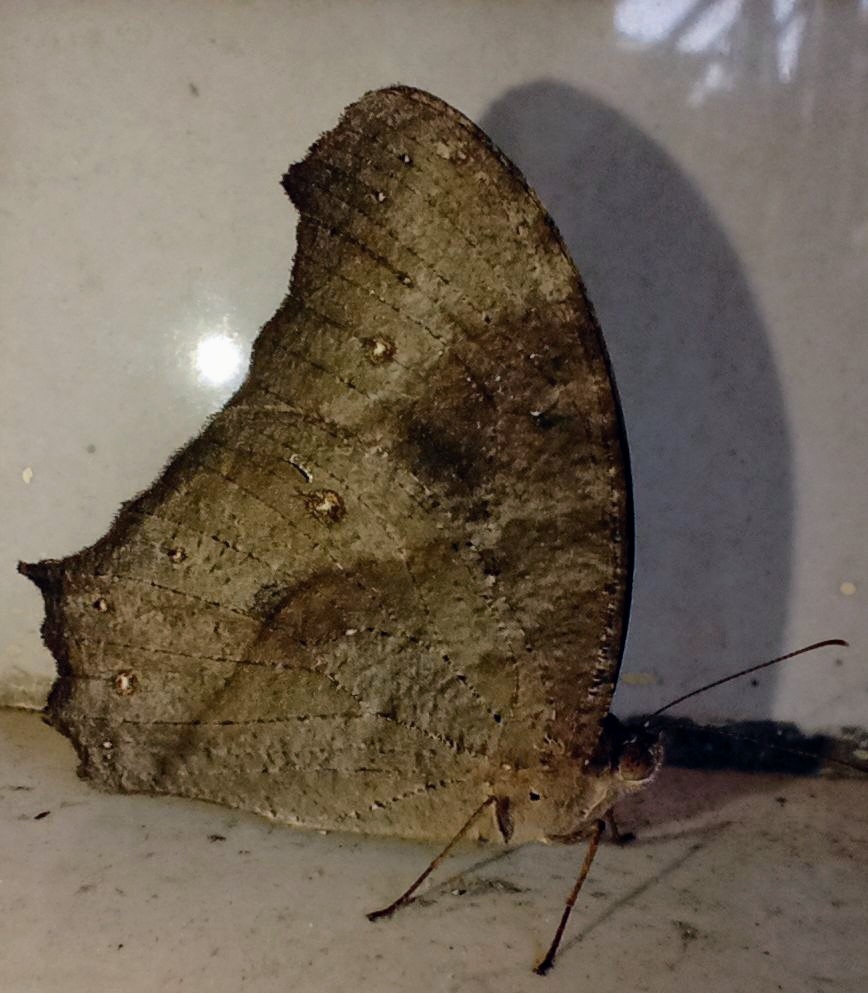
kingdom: Animalia
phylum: Arthropoda
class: Insecta
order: Lepidoptera
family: Nymphalidae
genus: Melanitis
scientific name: Melanitis leda
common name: Twilight brown
